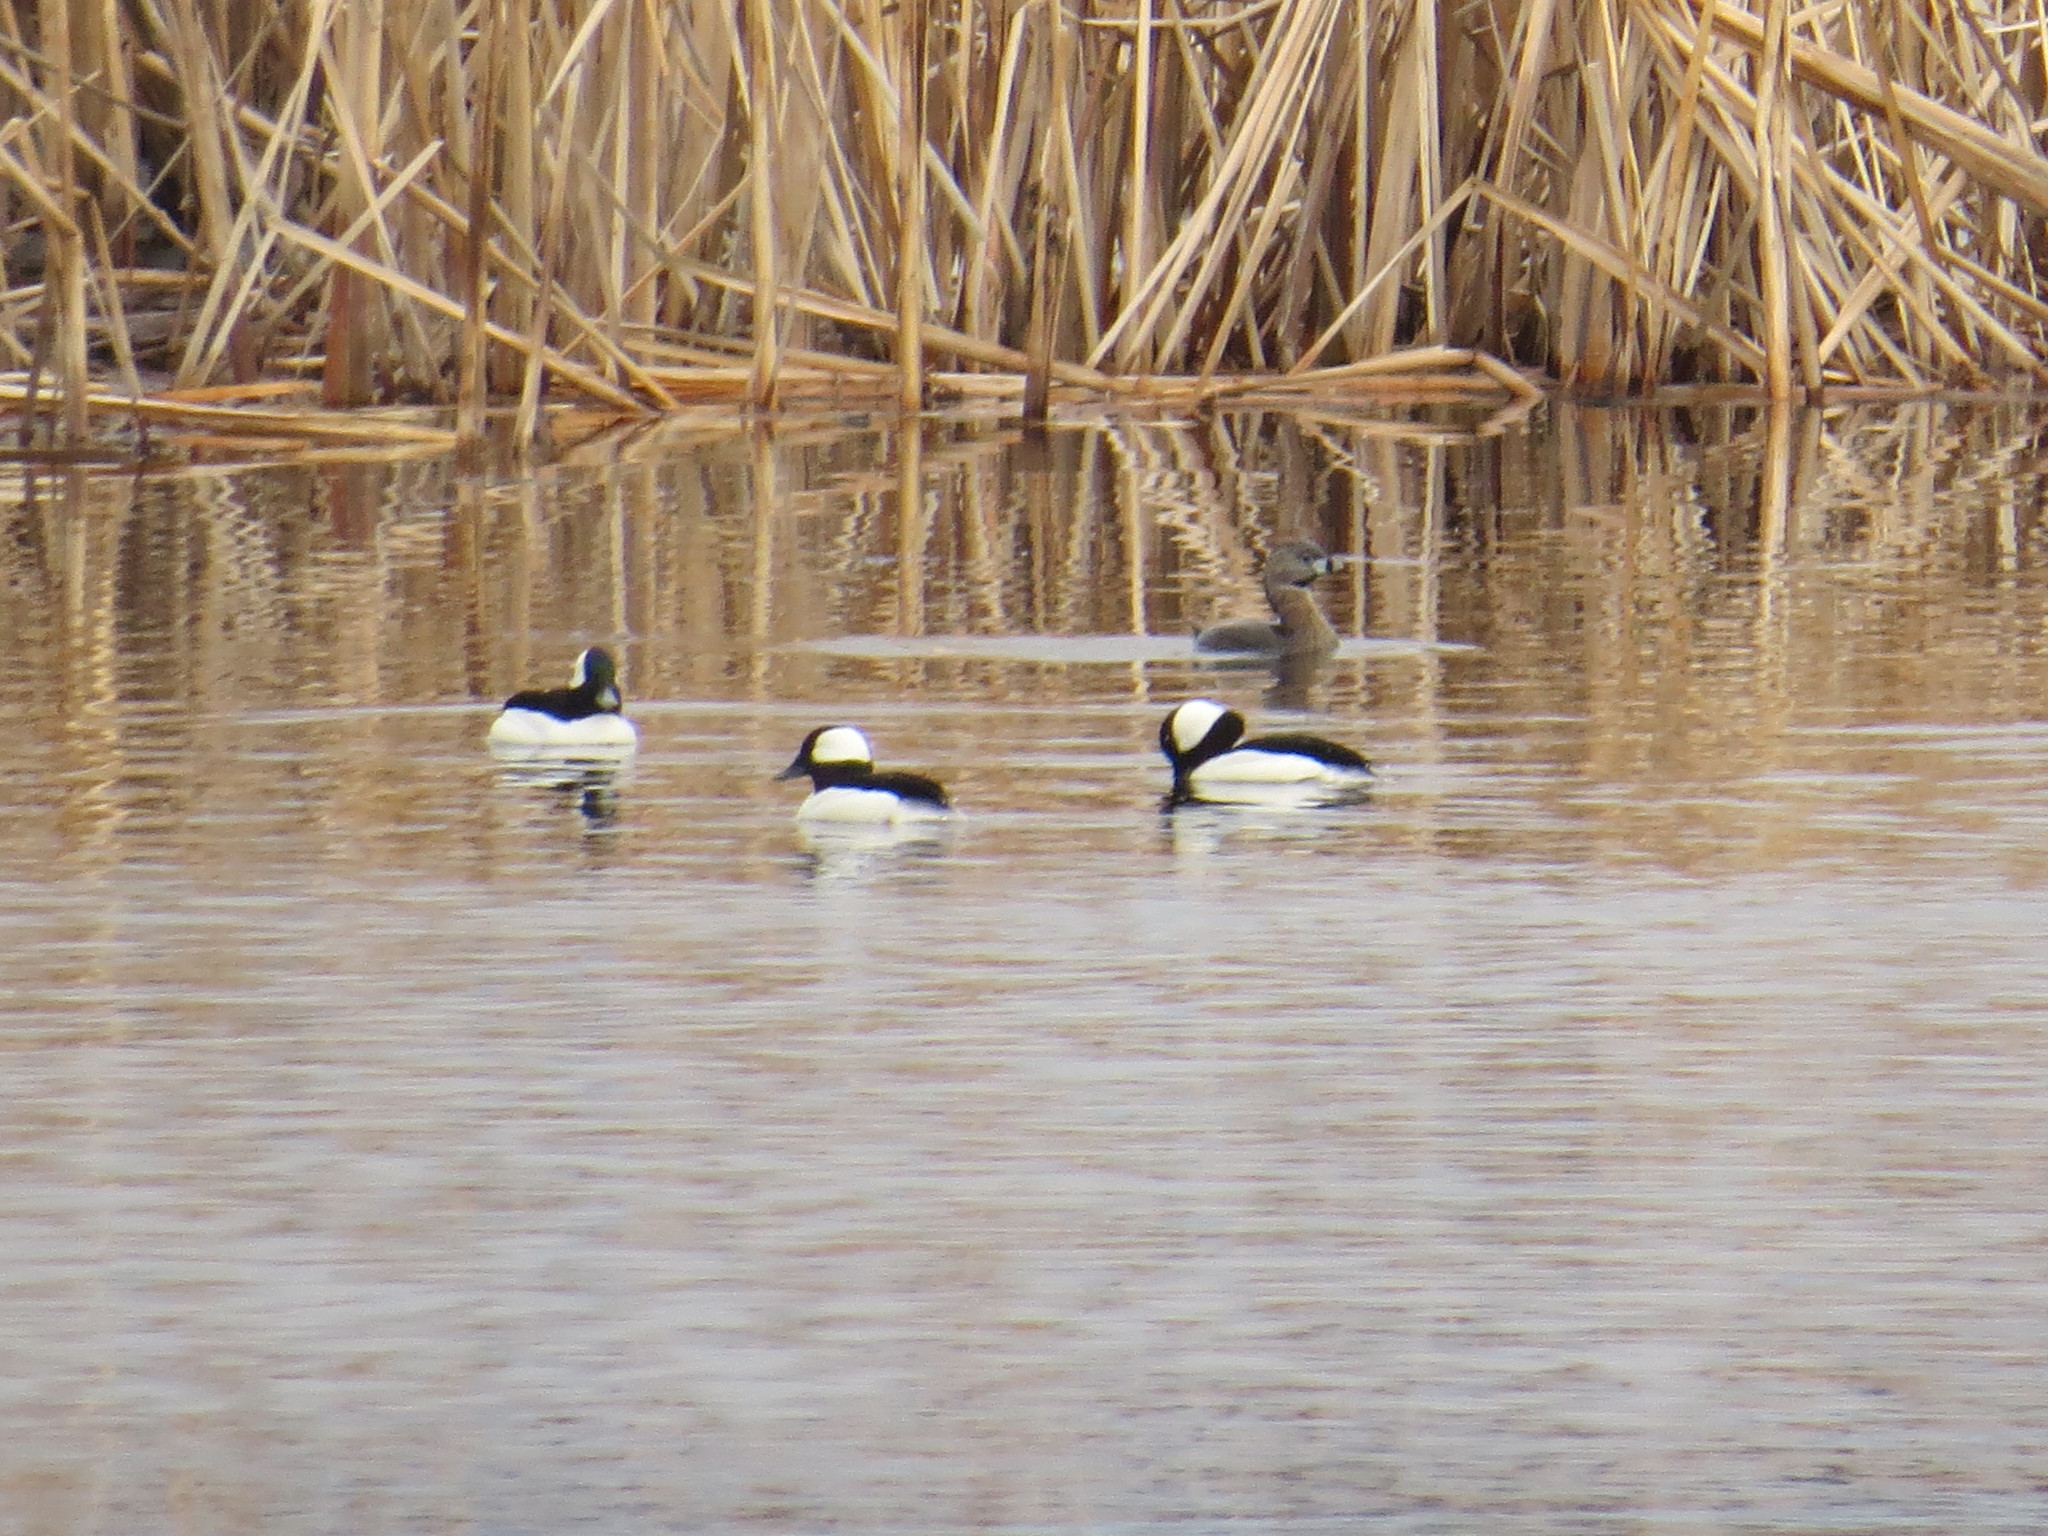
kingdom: Animalia
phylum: Chordata
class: Aves
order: Anseriformes
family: Anatidae
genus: Bucephala
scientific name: Bucephala albeola
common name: Bufflehead
